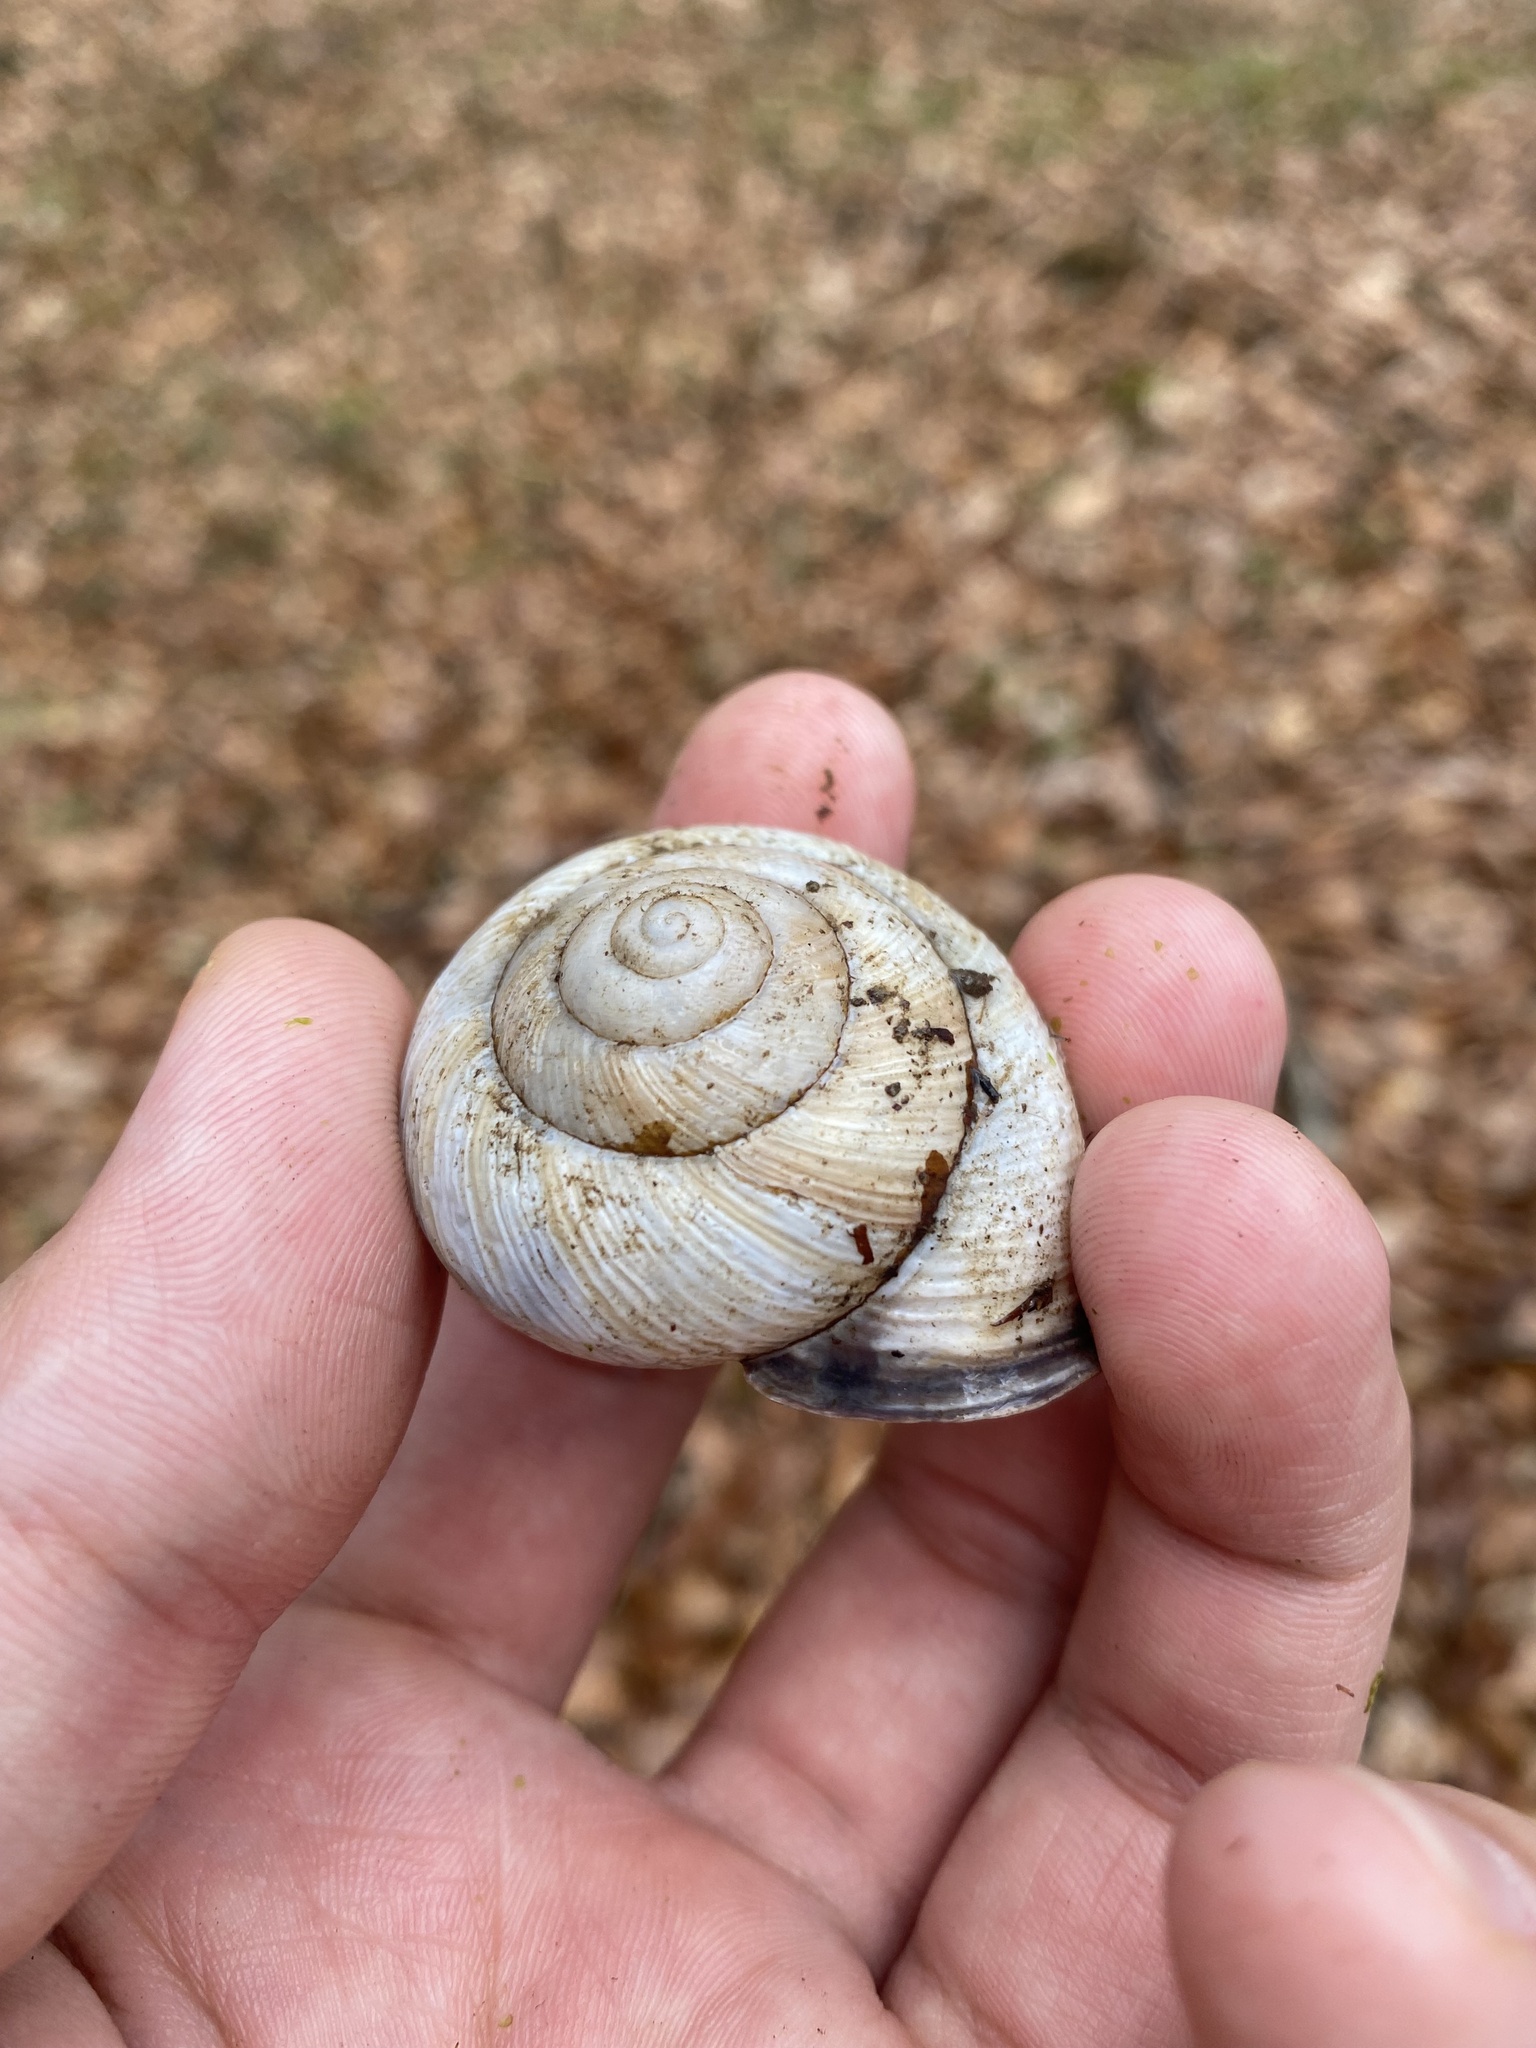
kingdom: Animalia
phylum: Mollusca
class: Gastropoda
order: Stylommatophora
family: Helicidae
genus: Caucasotachea
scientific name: Caucasotachea atrolabiata
